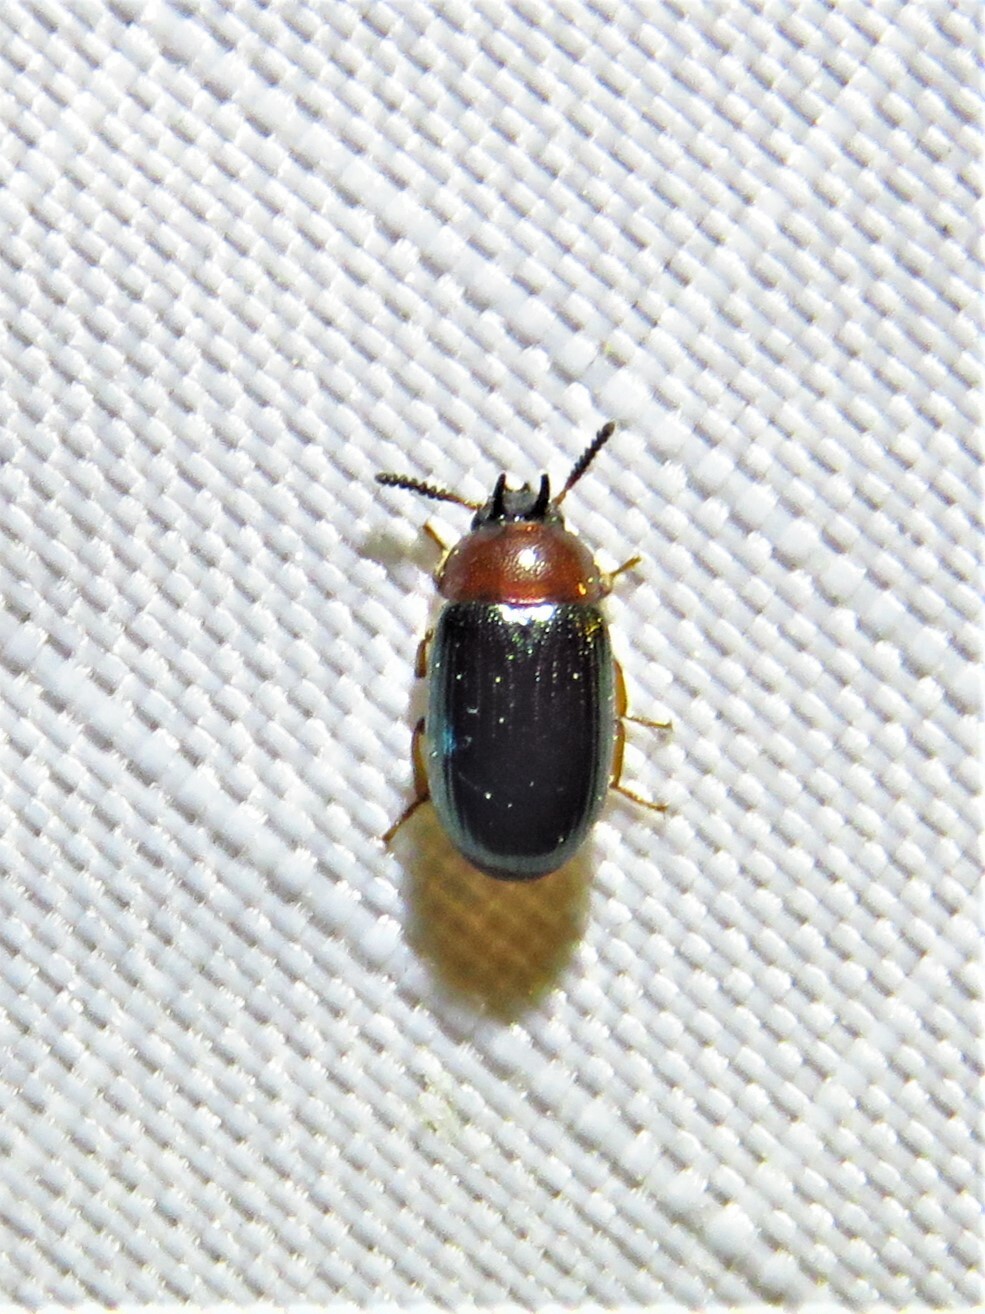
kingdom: Animalia
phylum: Arthropoda
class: Insecta
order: Coleoptera
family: Tenebrionidae
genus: Neomida
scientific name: Neomida bicornis
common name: Two-horned darkling beetle
